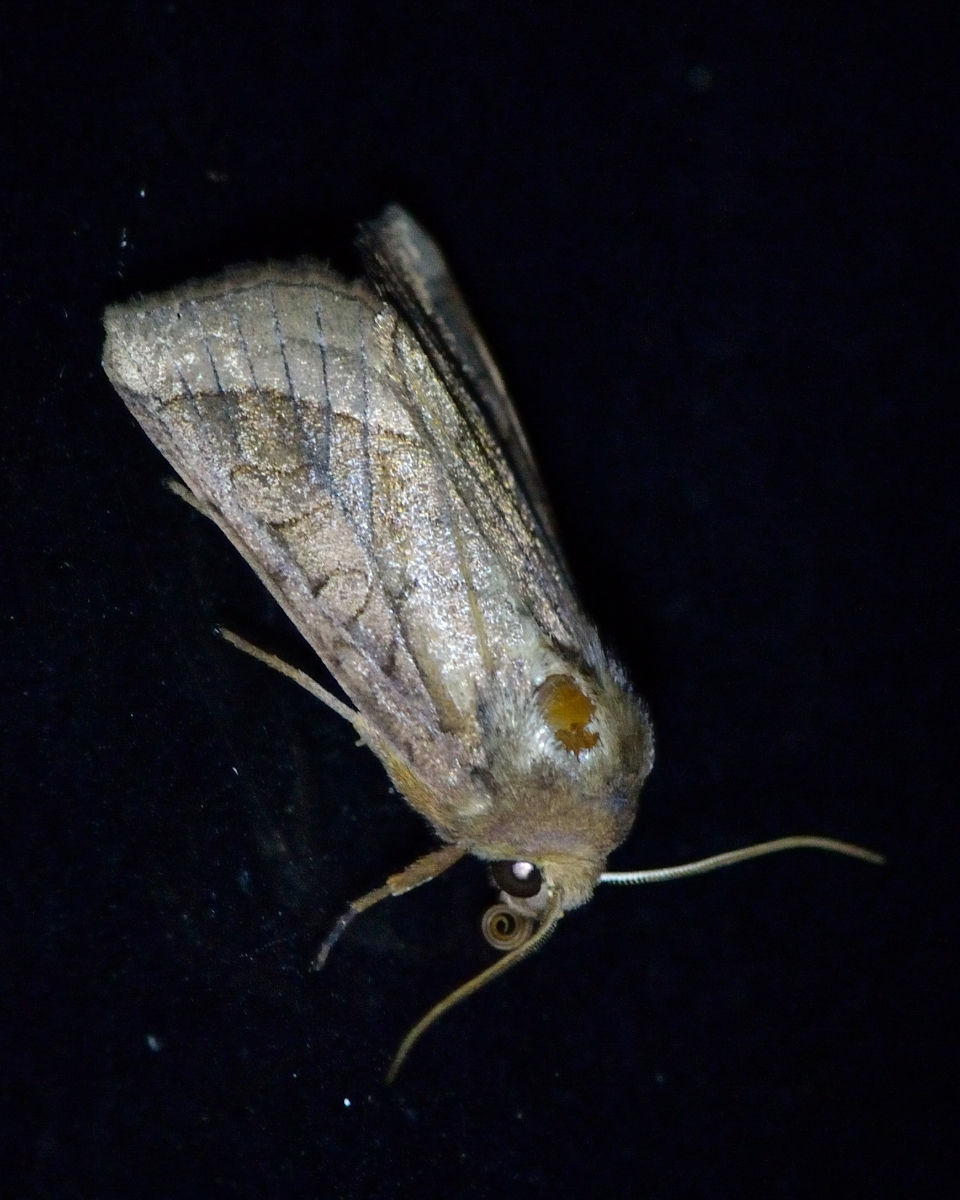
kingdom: Animalia
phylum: Arthropoda
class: Insecta
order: Lepidoptera
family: Noctuidae
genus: Hydraecia
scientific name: Hydraecia ultima
